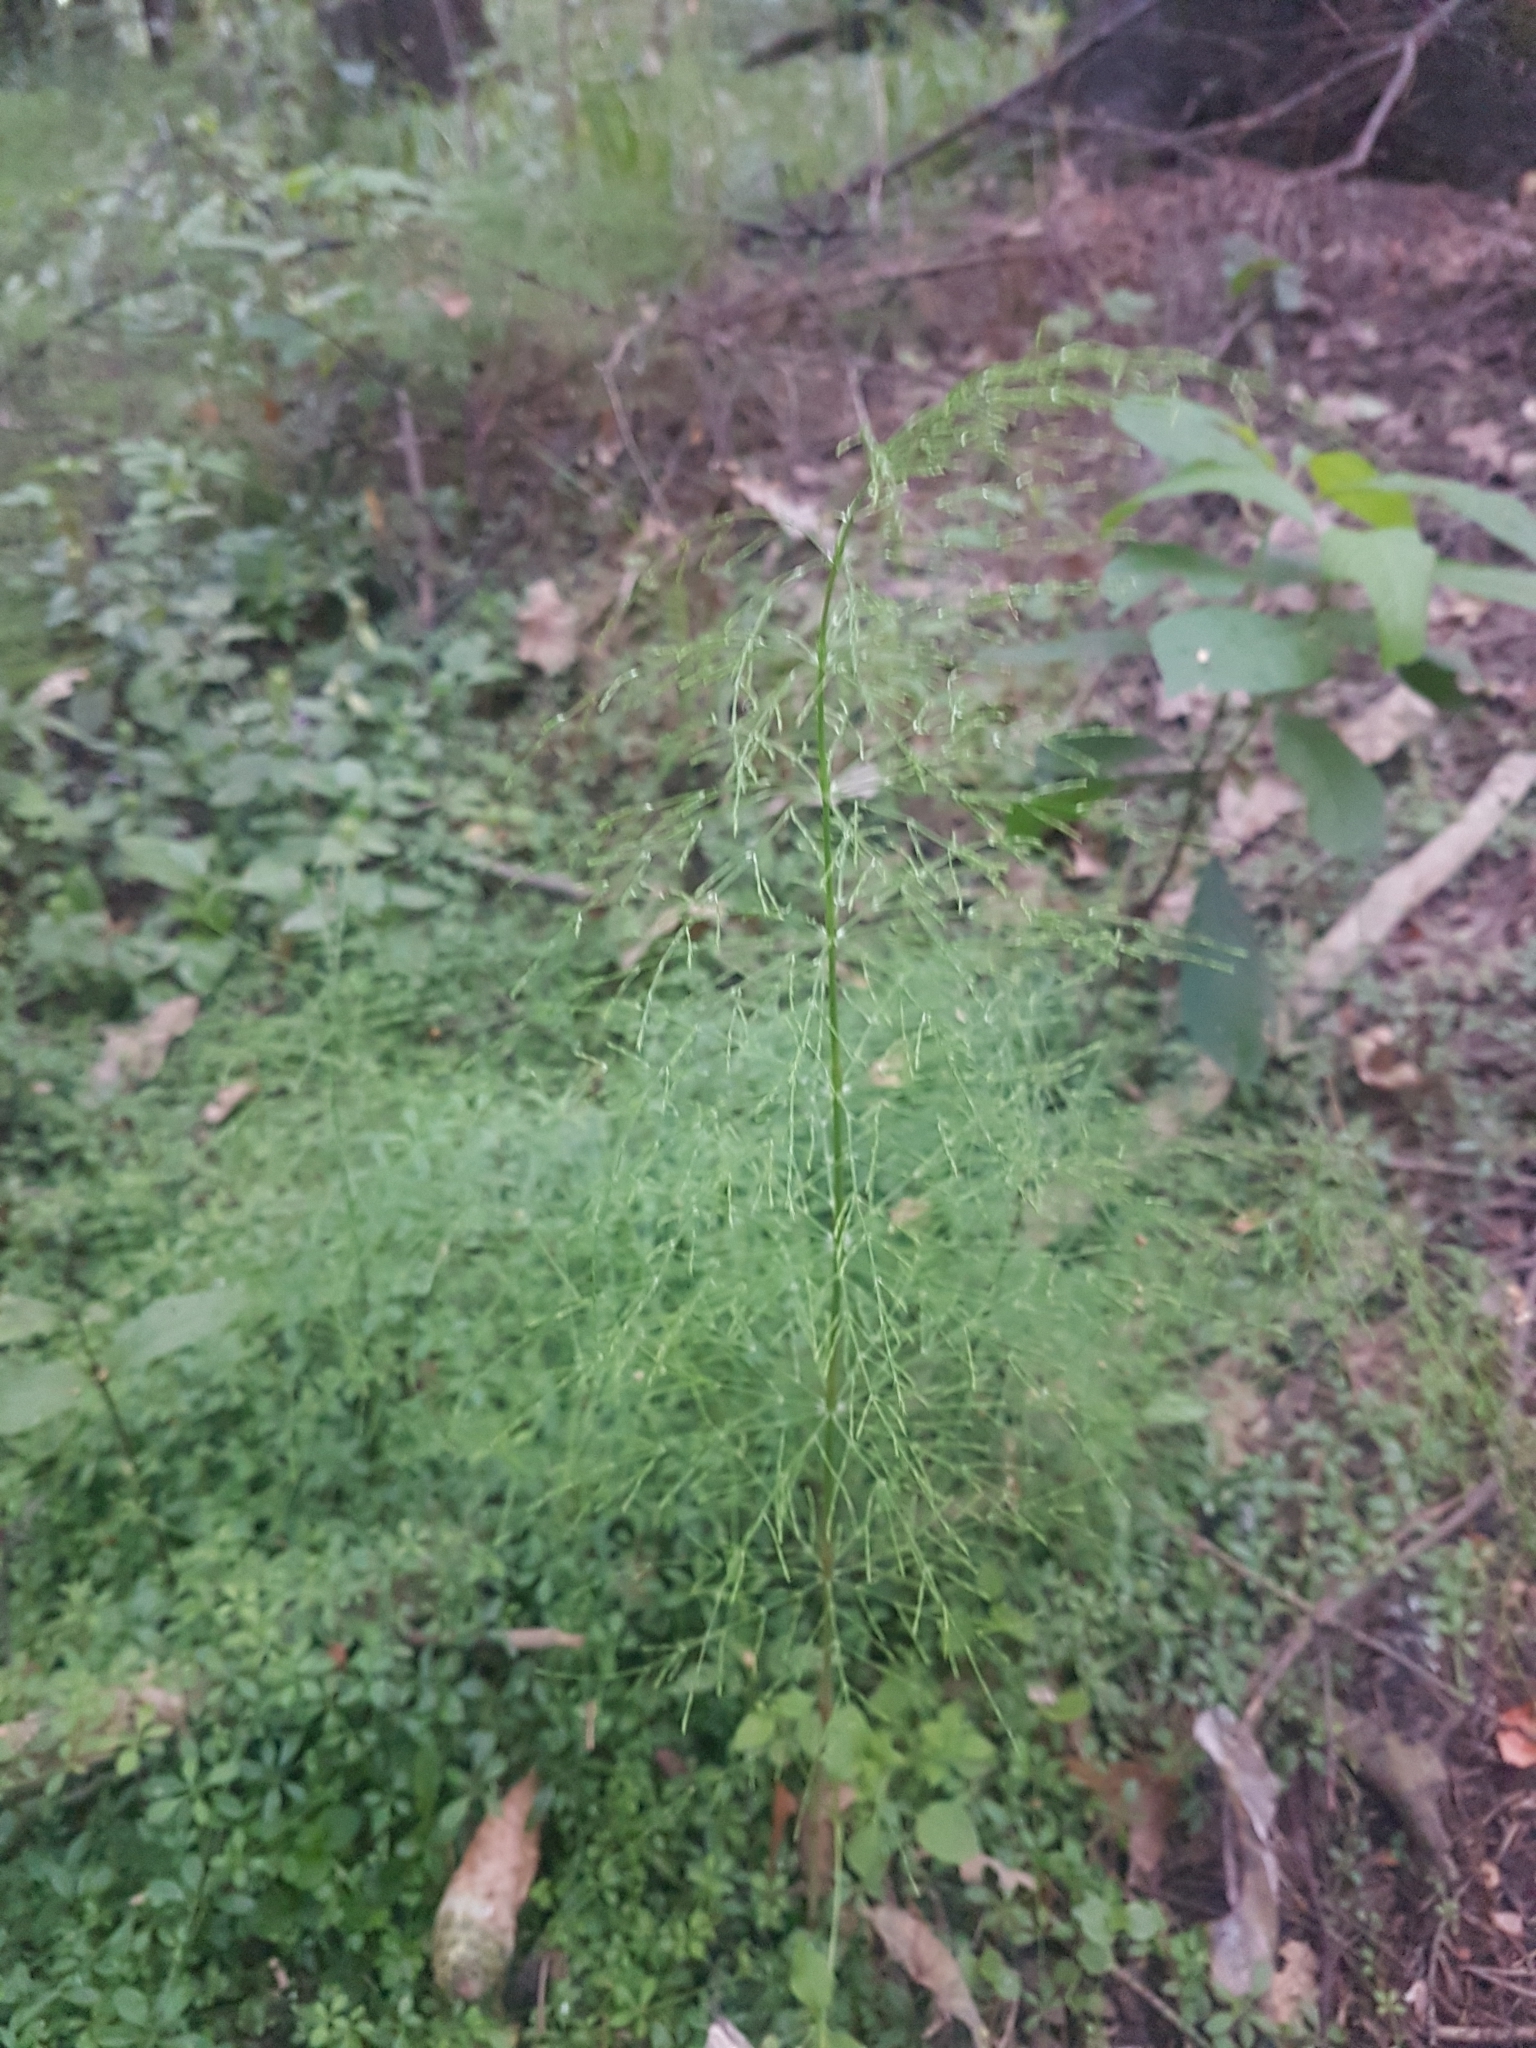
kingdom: Plantae
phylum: Tracheophyta
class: Polypodiopsida
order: Equisetales
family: Equisetaceae
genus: Equisetum
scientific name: Equisetum sylvaticum
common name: Wood horsetail
